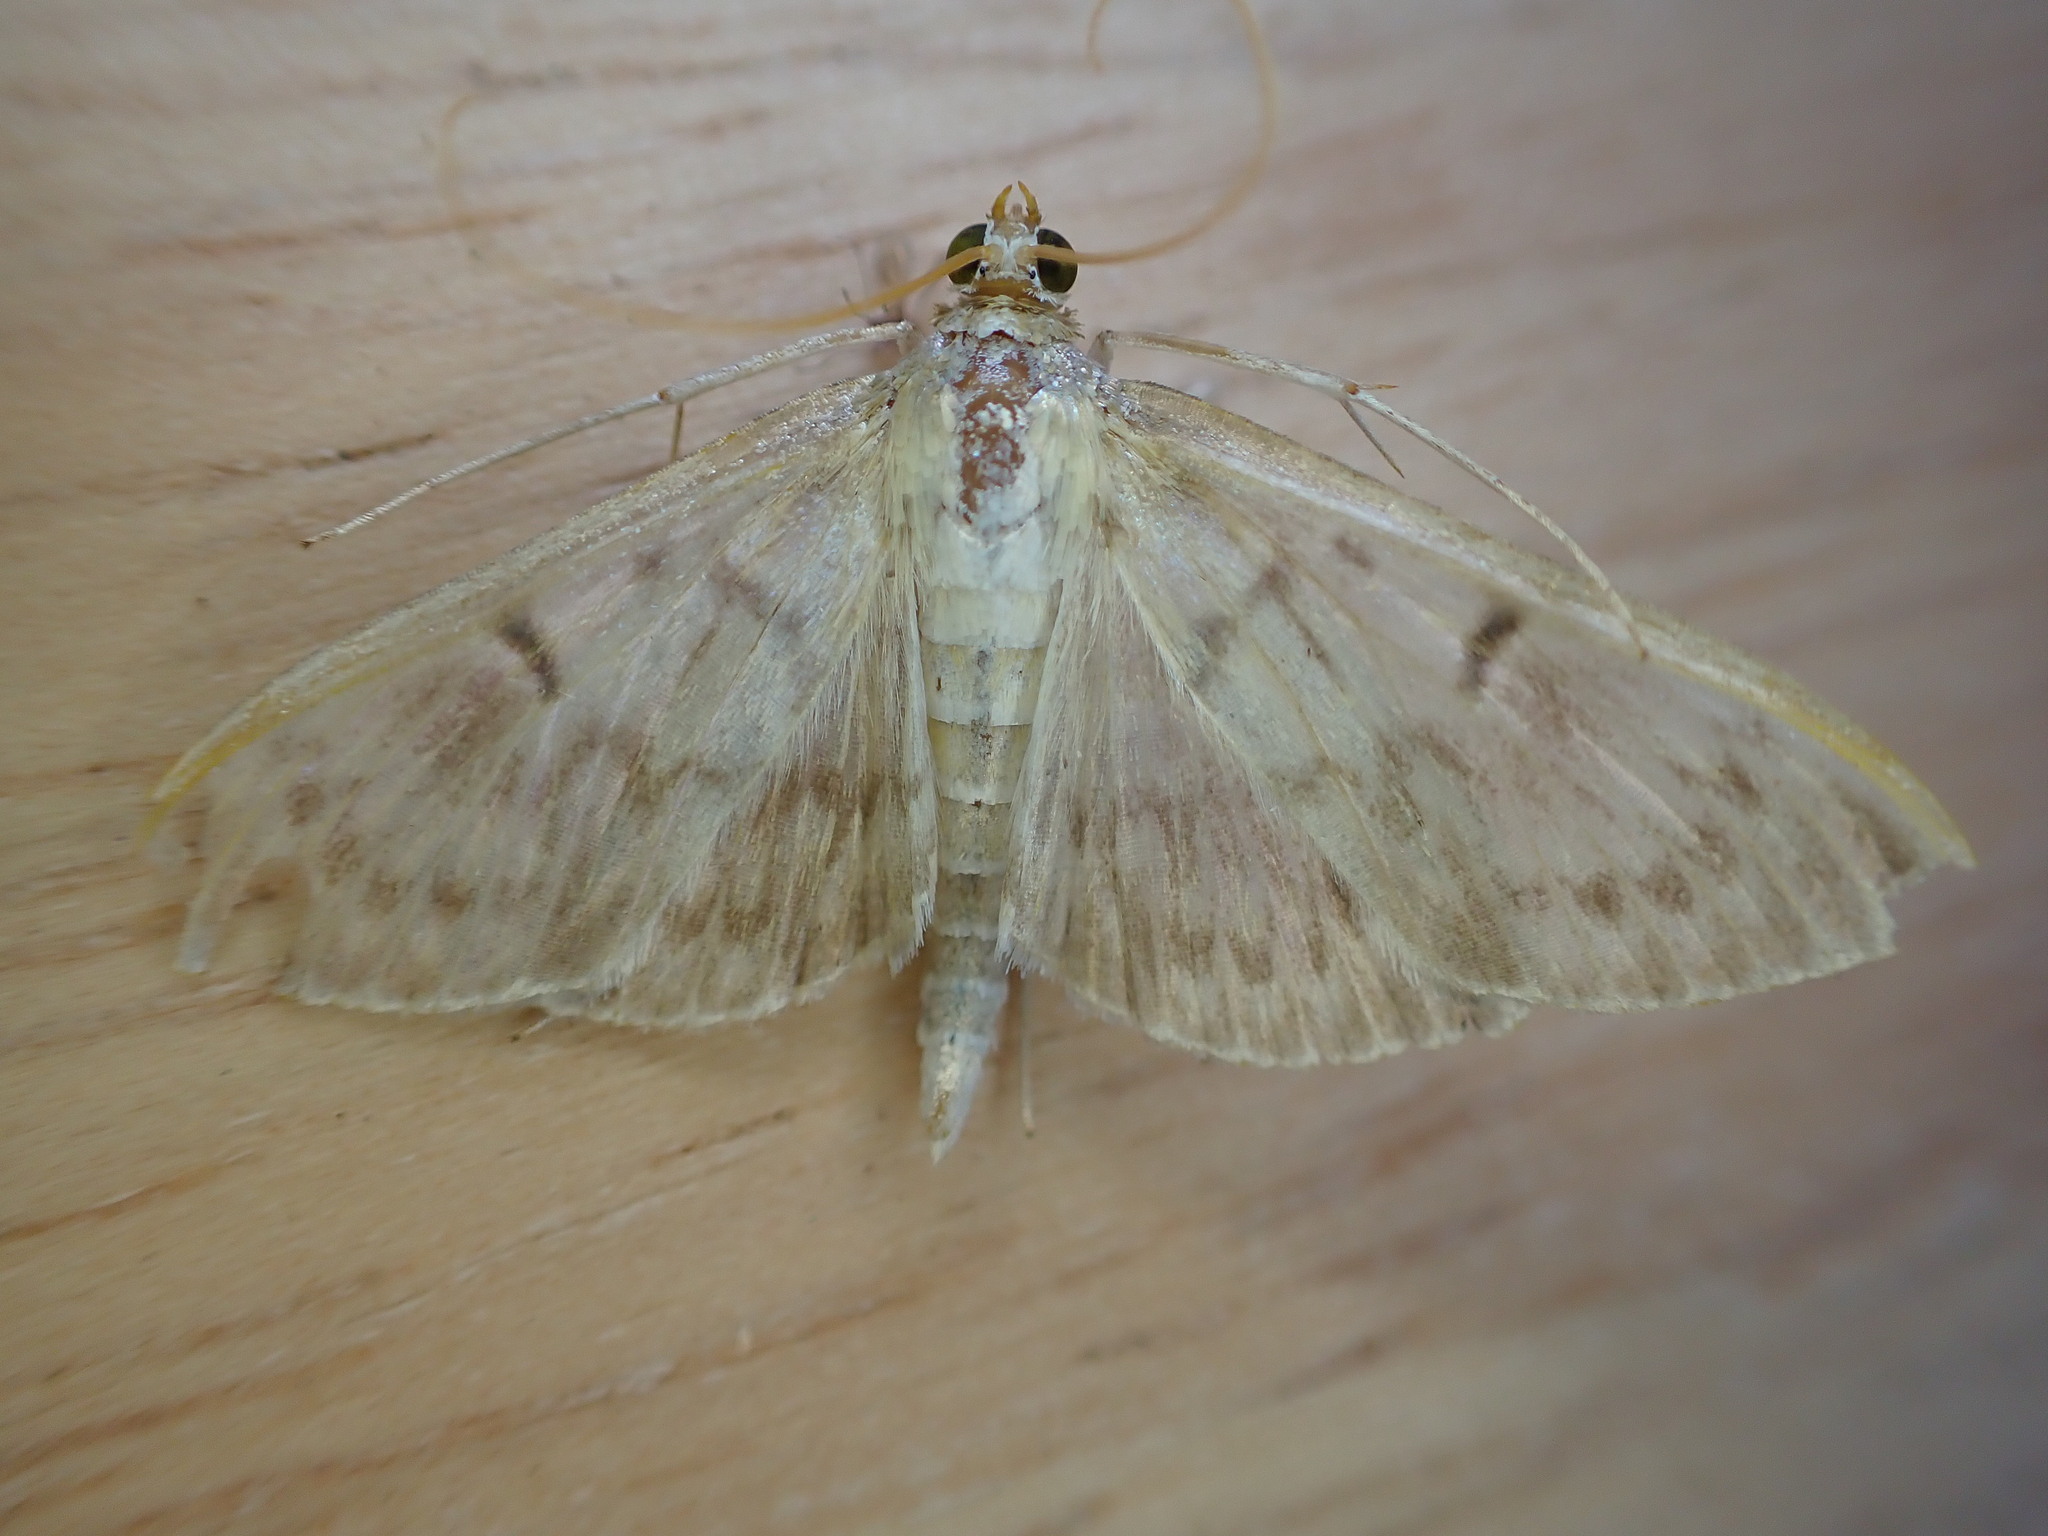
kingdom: Animalia
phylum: Arthropoda
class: Insecta
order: Lepidoptera
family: Crambidae
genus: Patania
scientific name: Patania ruralis
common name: Mother of pearl
